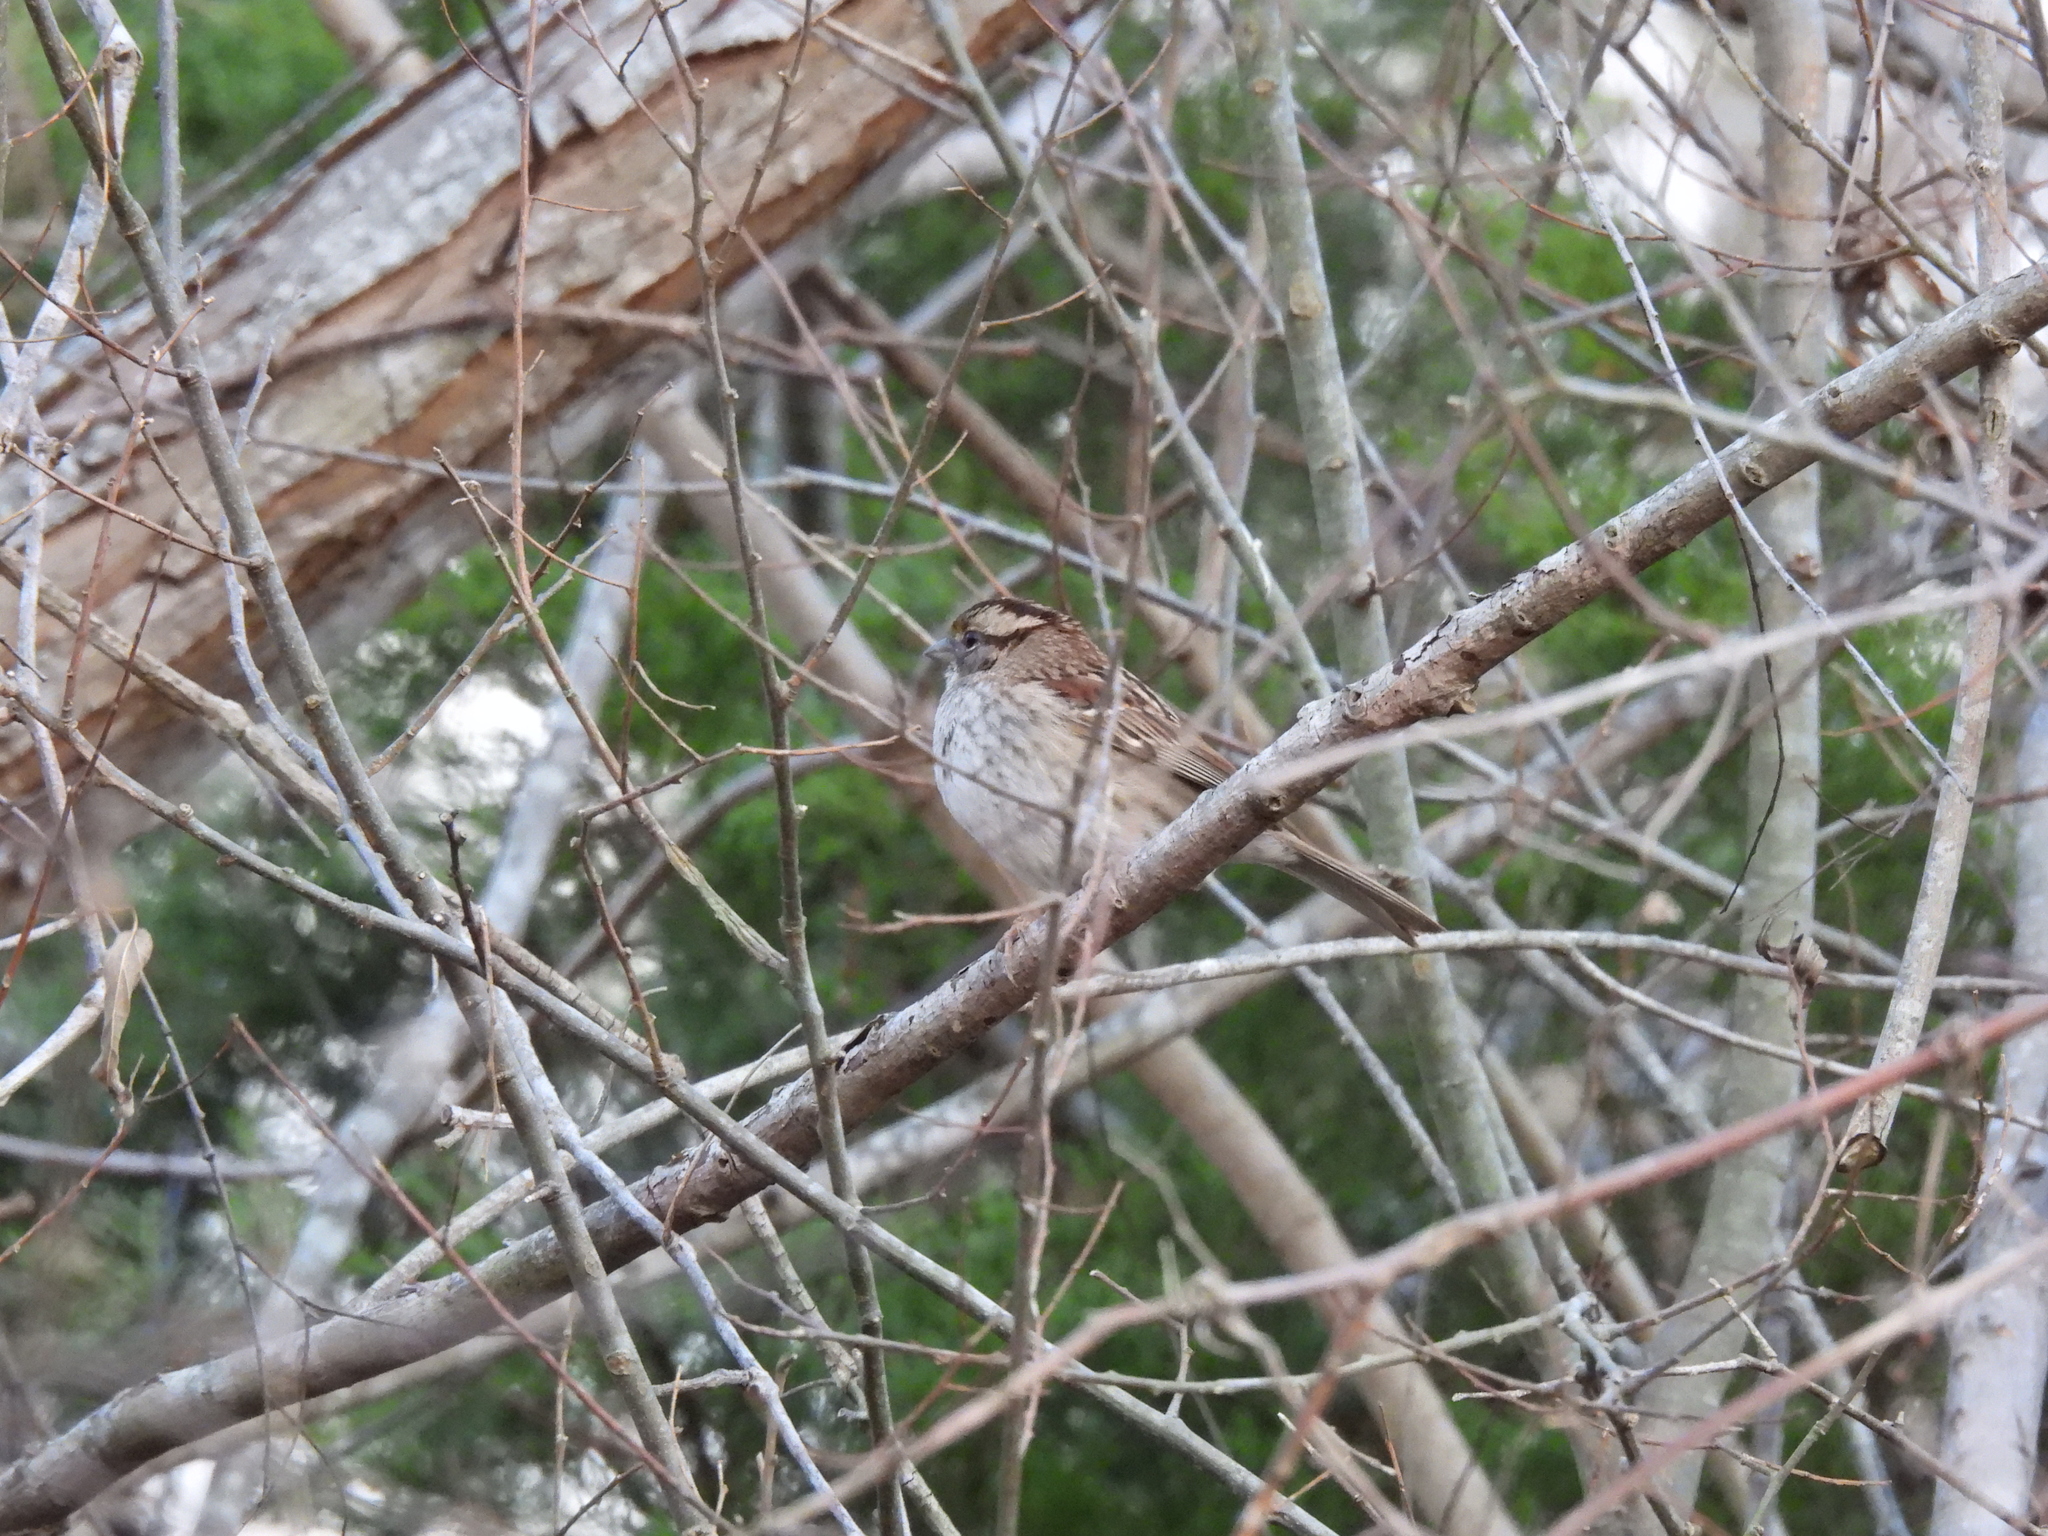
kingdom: Animalia
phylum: Chordata
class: Aves
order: Passeriformes
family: Passerellidae
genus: Zonotrichia
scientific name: Zonotrichia albicollis
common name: White-throated sparrow
